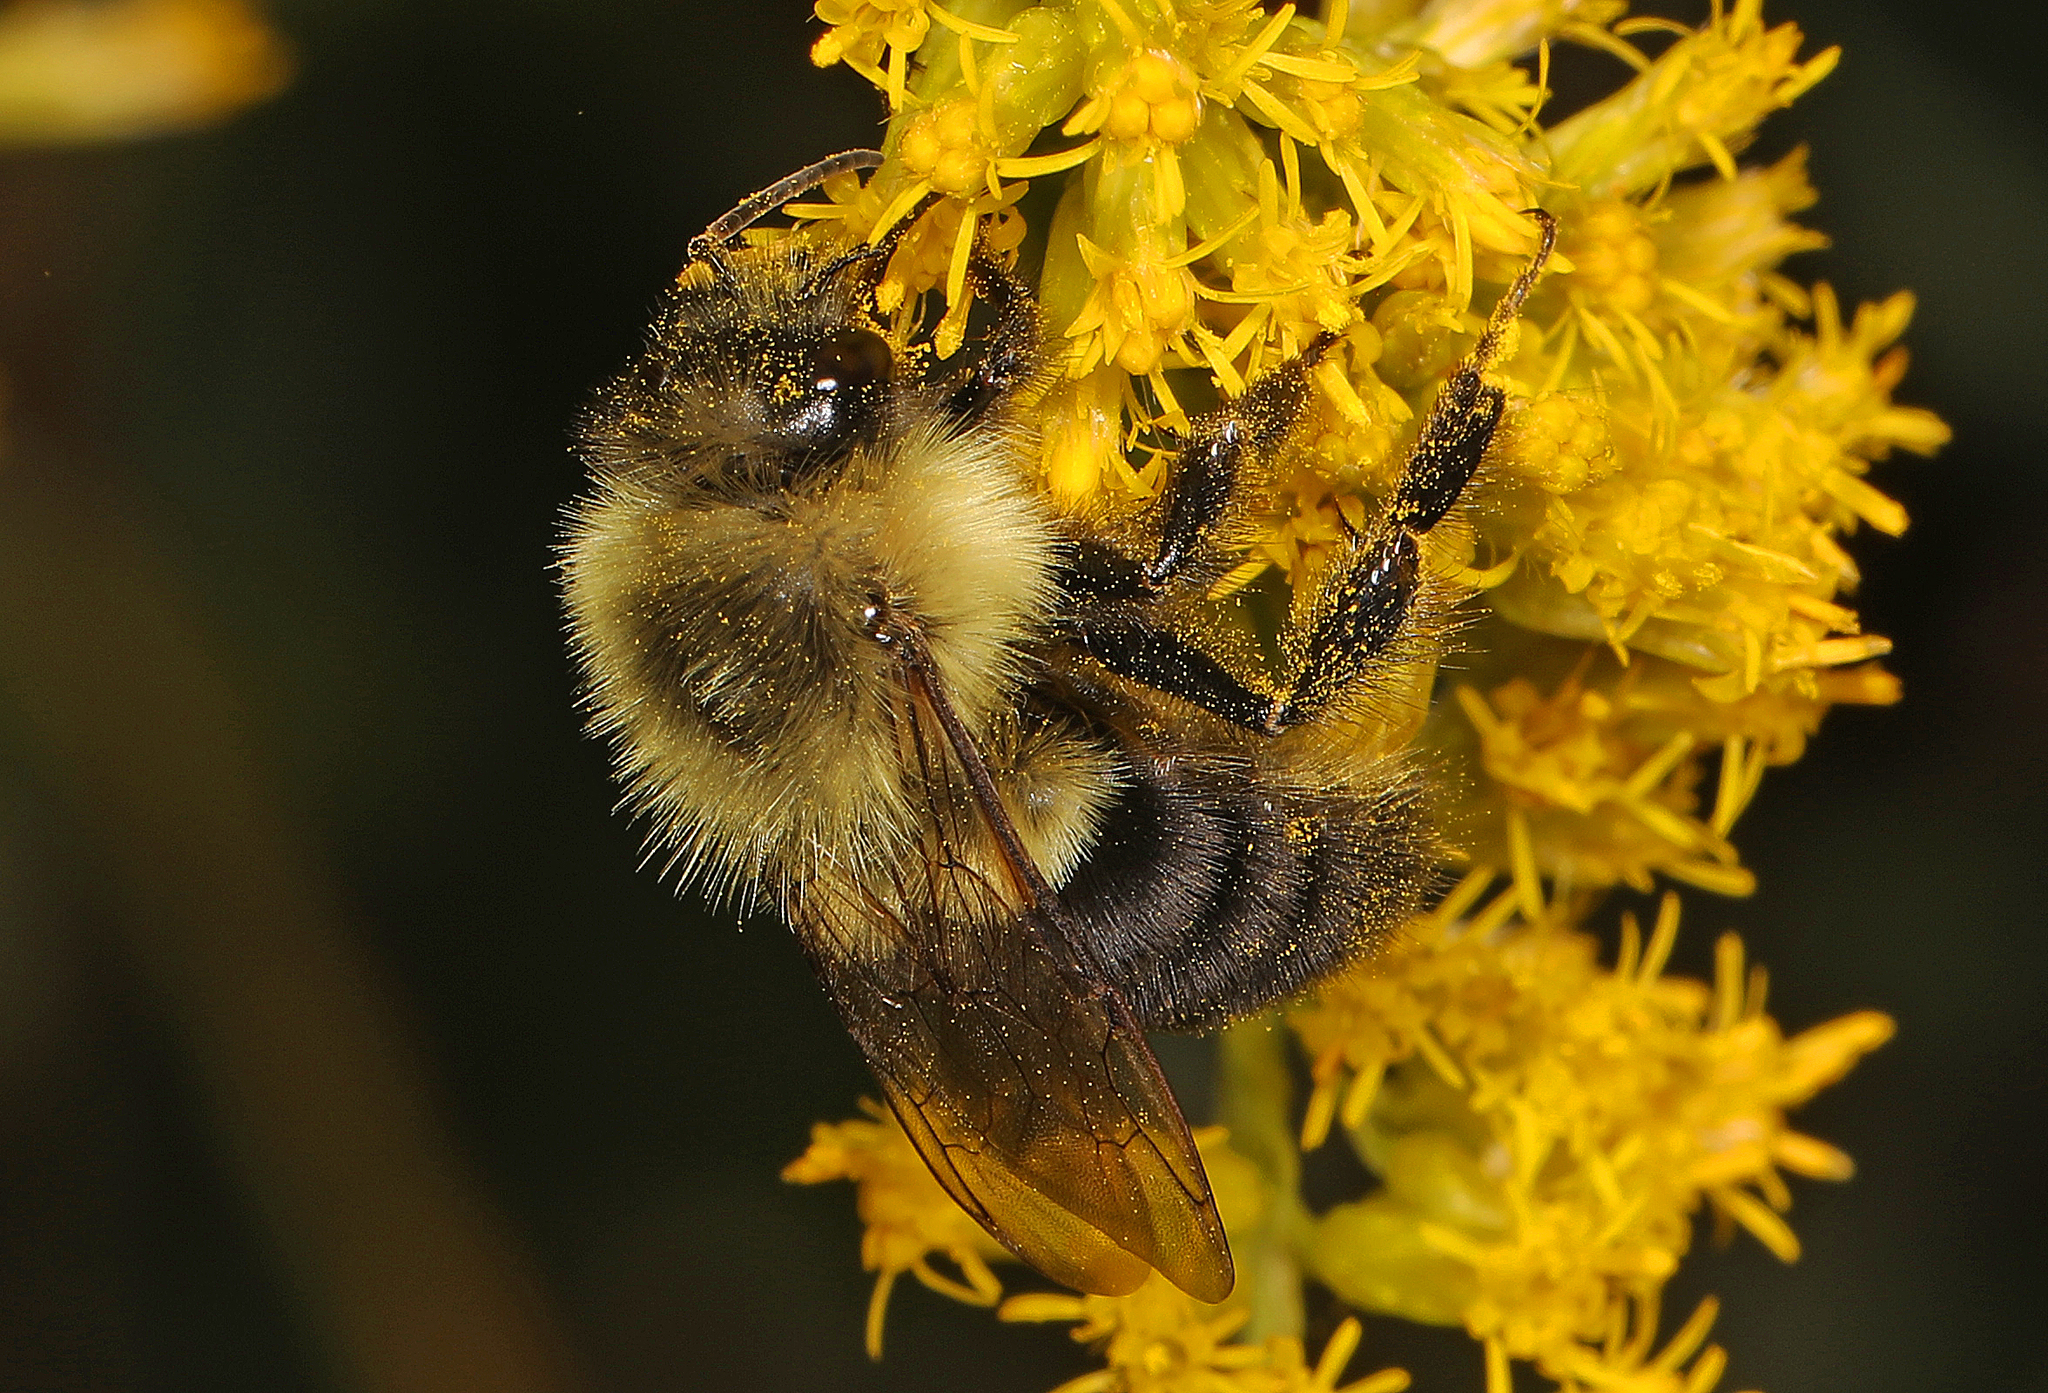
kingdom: Animalia
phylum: Arthropoda
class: Insecta
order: Hymenoptera
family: Apidae
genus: Bombus
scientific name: Bombus impatiens
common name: Common eastern bumble bee
